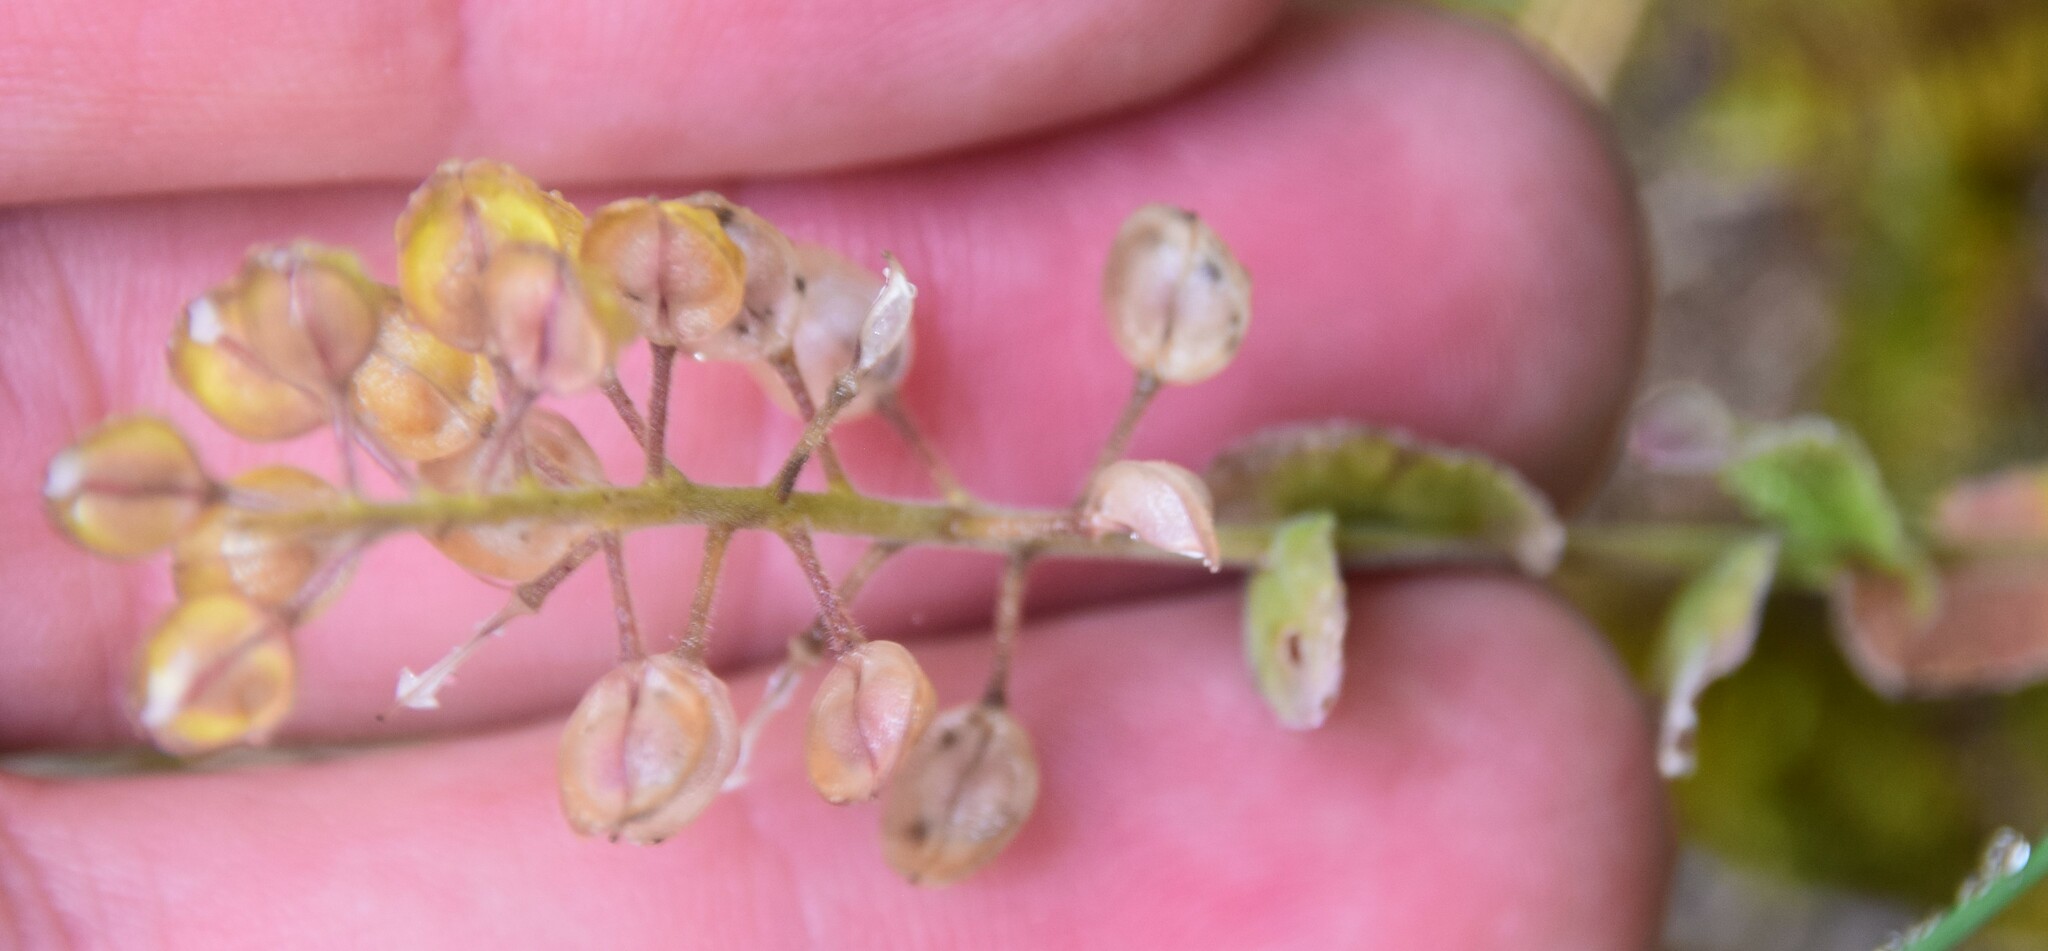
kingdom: Plantae
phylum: Tracheophyta
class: Magnoliopsida
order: Brassicales
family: Brassicaceae
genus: Lepidium
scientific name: Lepidium campestre
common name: Field pepperwort
